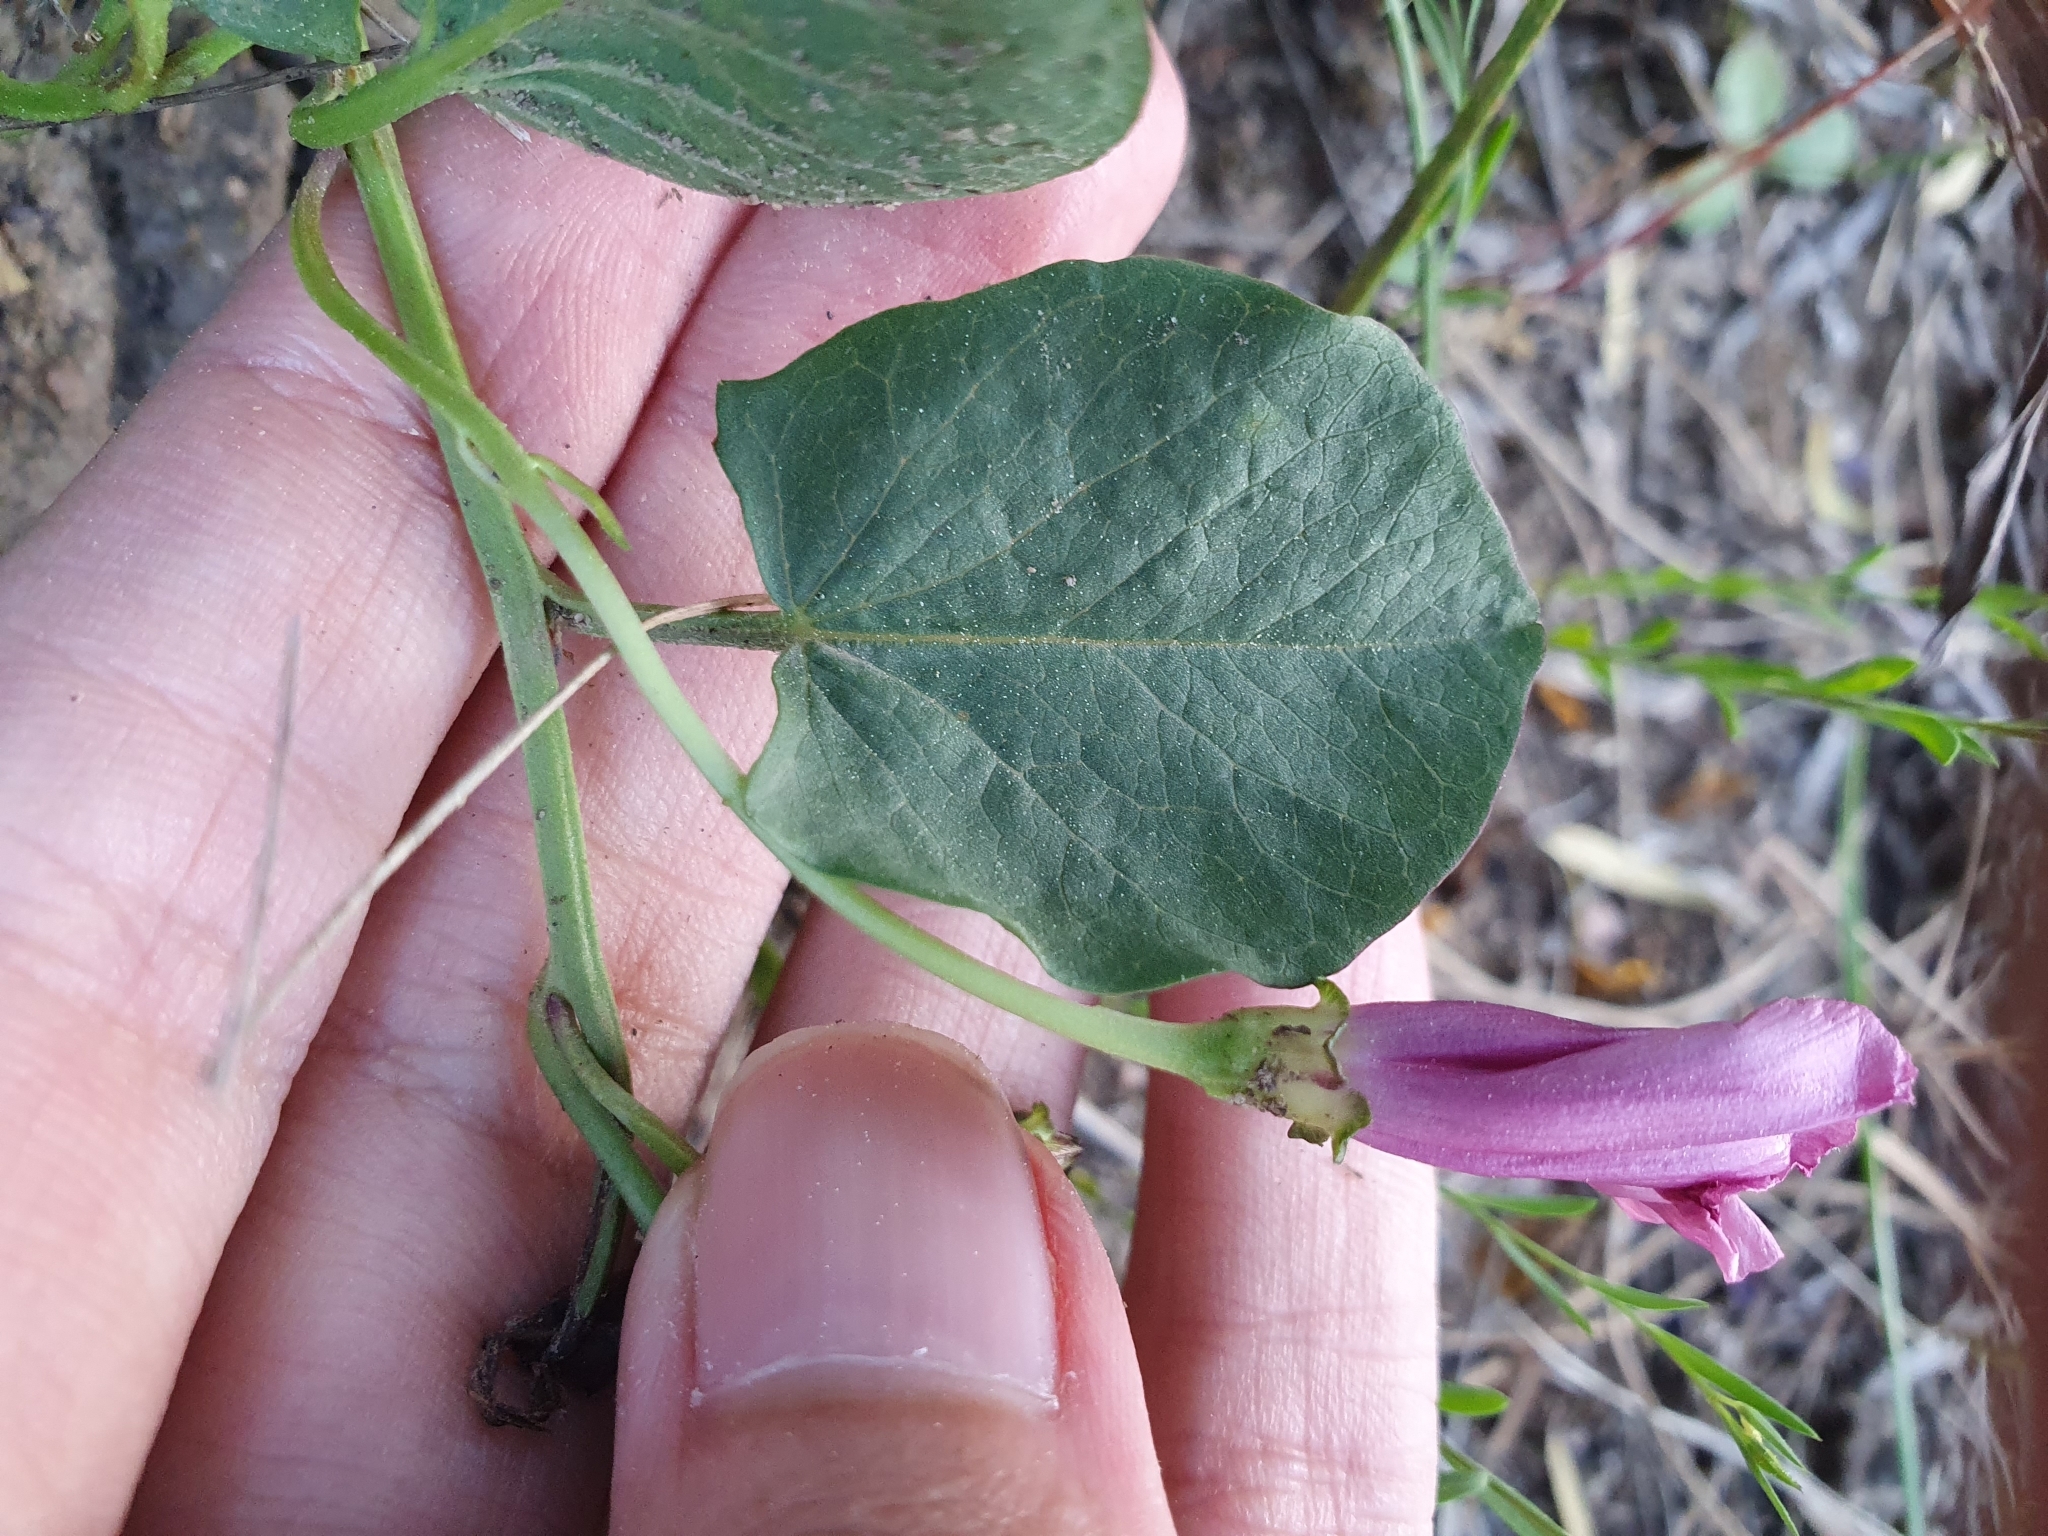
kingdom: Plantae
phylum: Tracheophyta
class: Magnoliopsida
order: Solanales
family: Convolvulaceae
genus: Convolvulus
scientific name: Convolvulus durandoi
